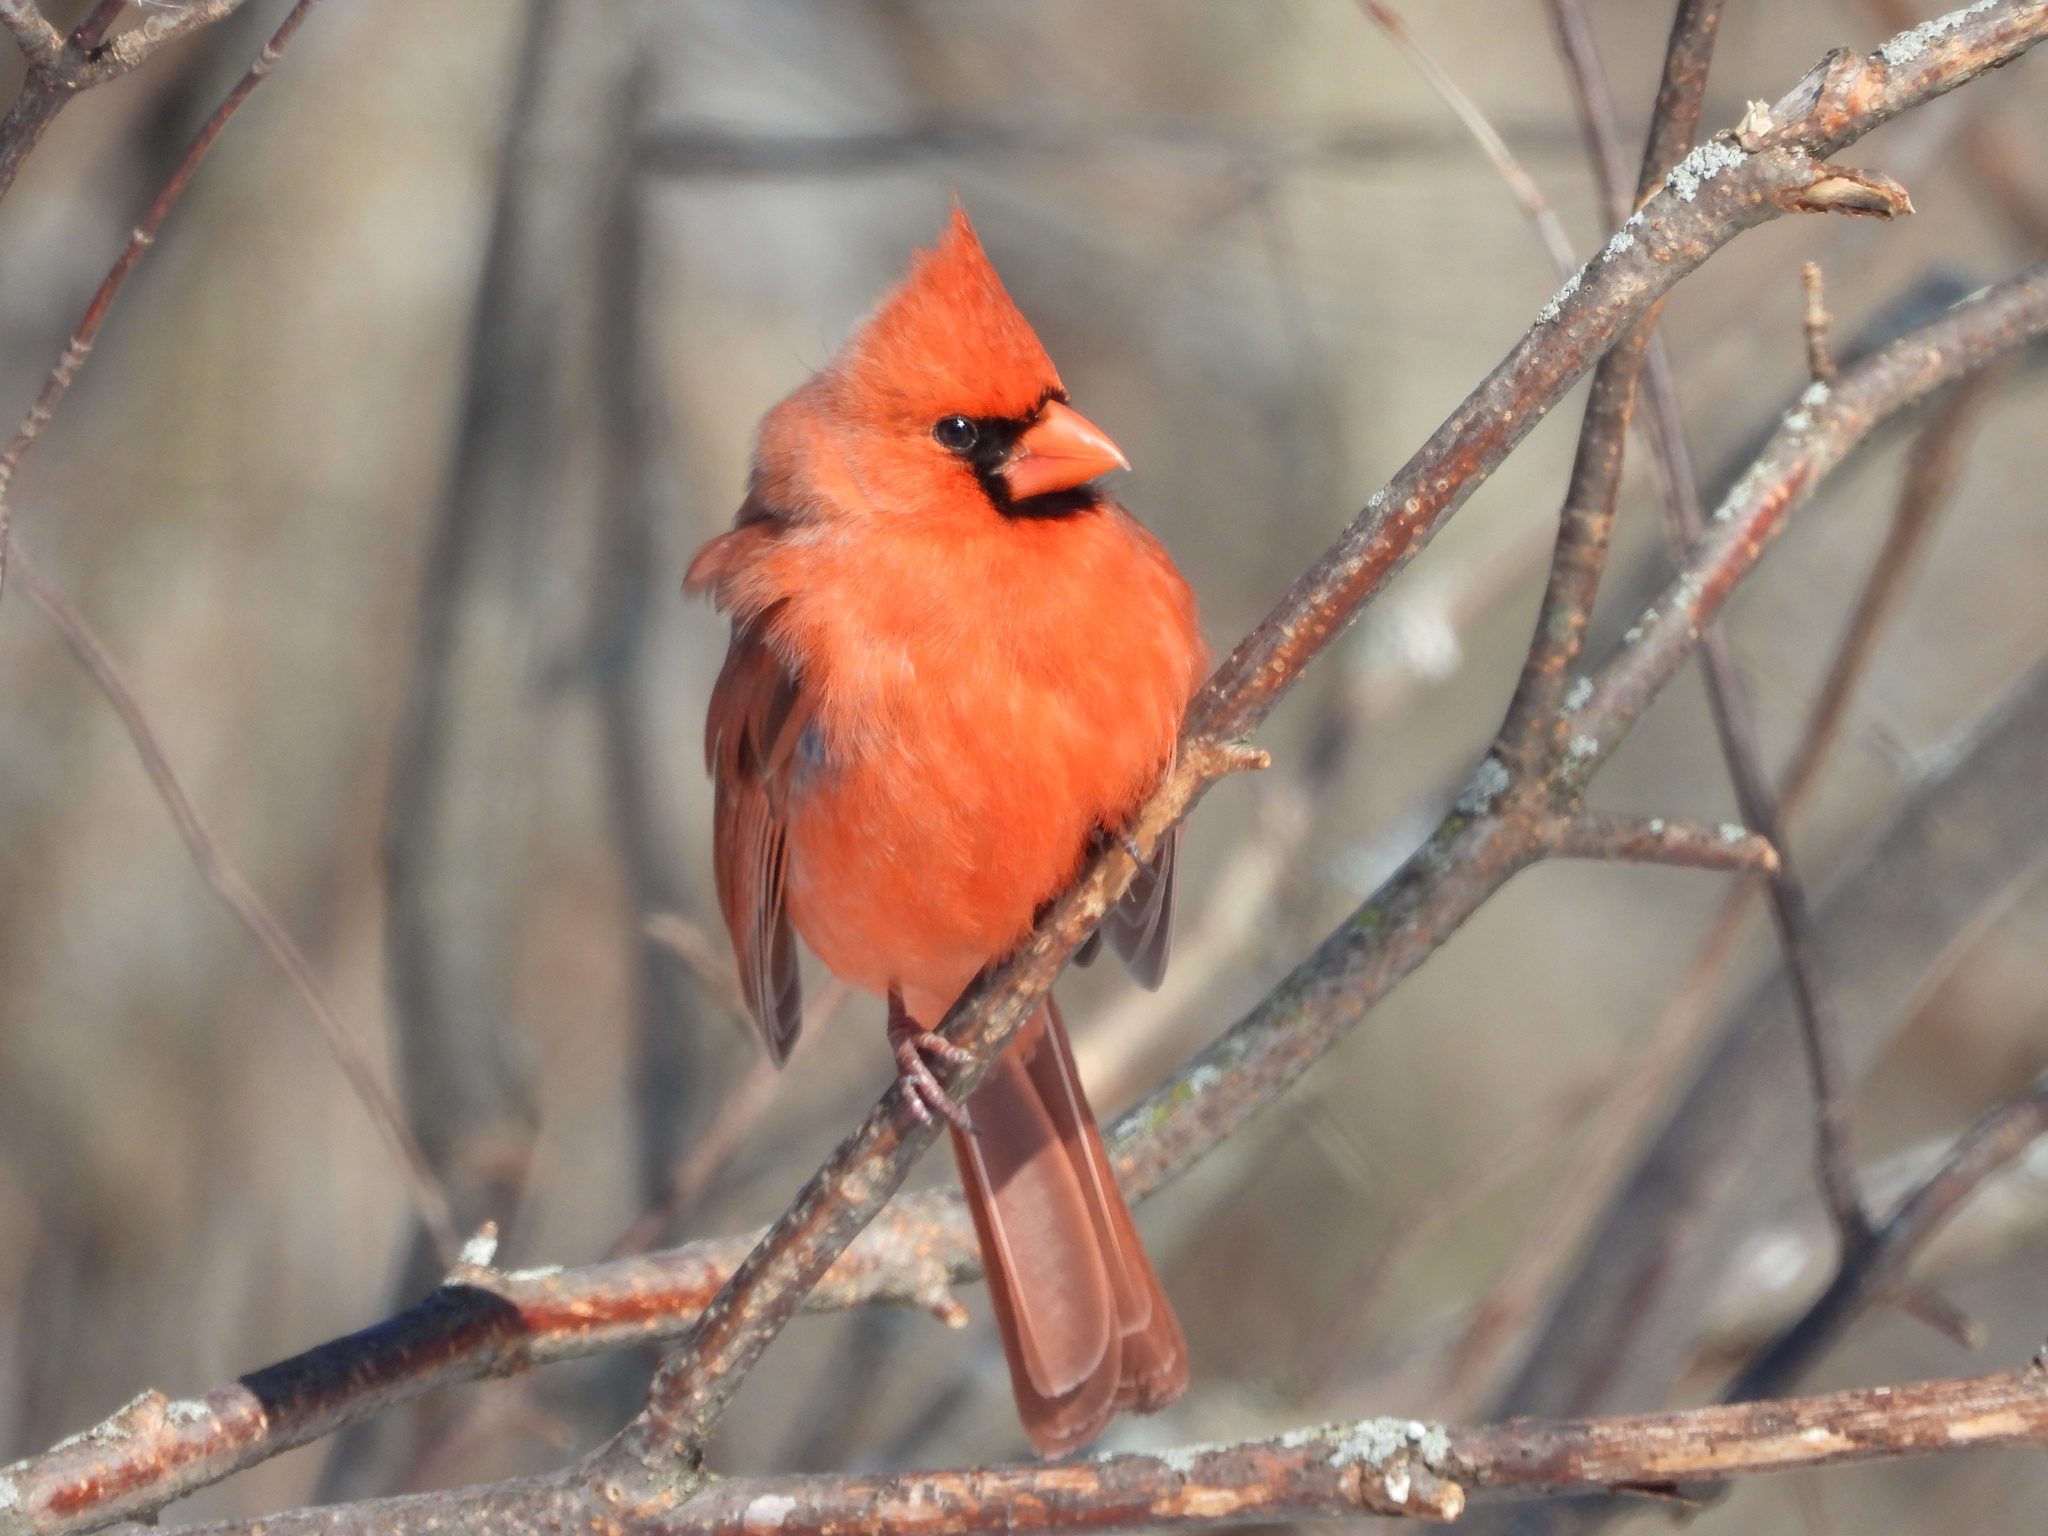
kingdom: Animalia
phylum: Chordata
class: Aves
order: Passeriformes
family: Cardinalidae
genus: Cardinalis
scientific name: Cardinalis cardinalis
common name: Northern cardinal
